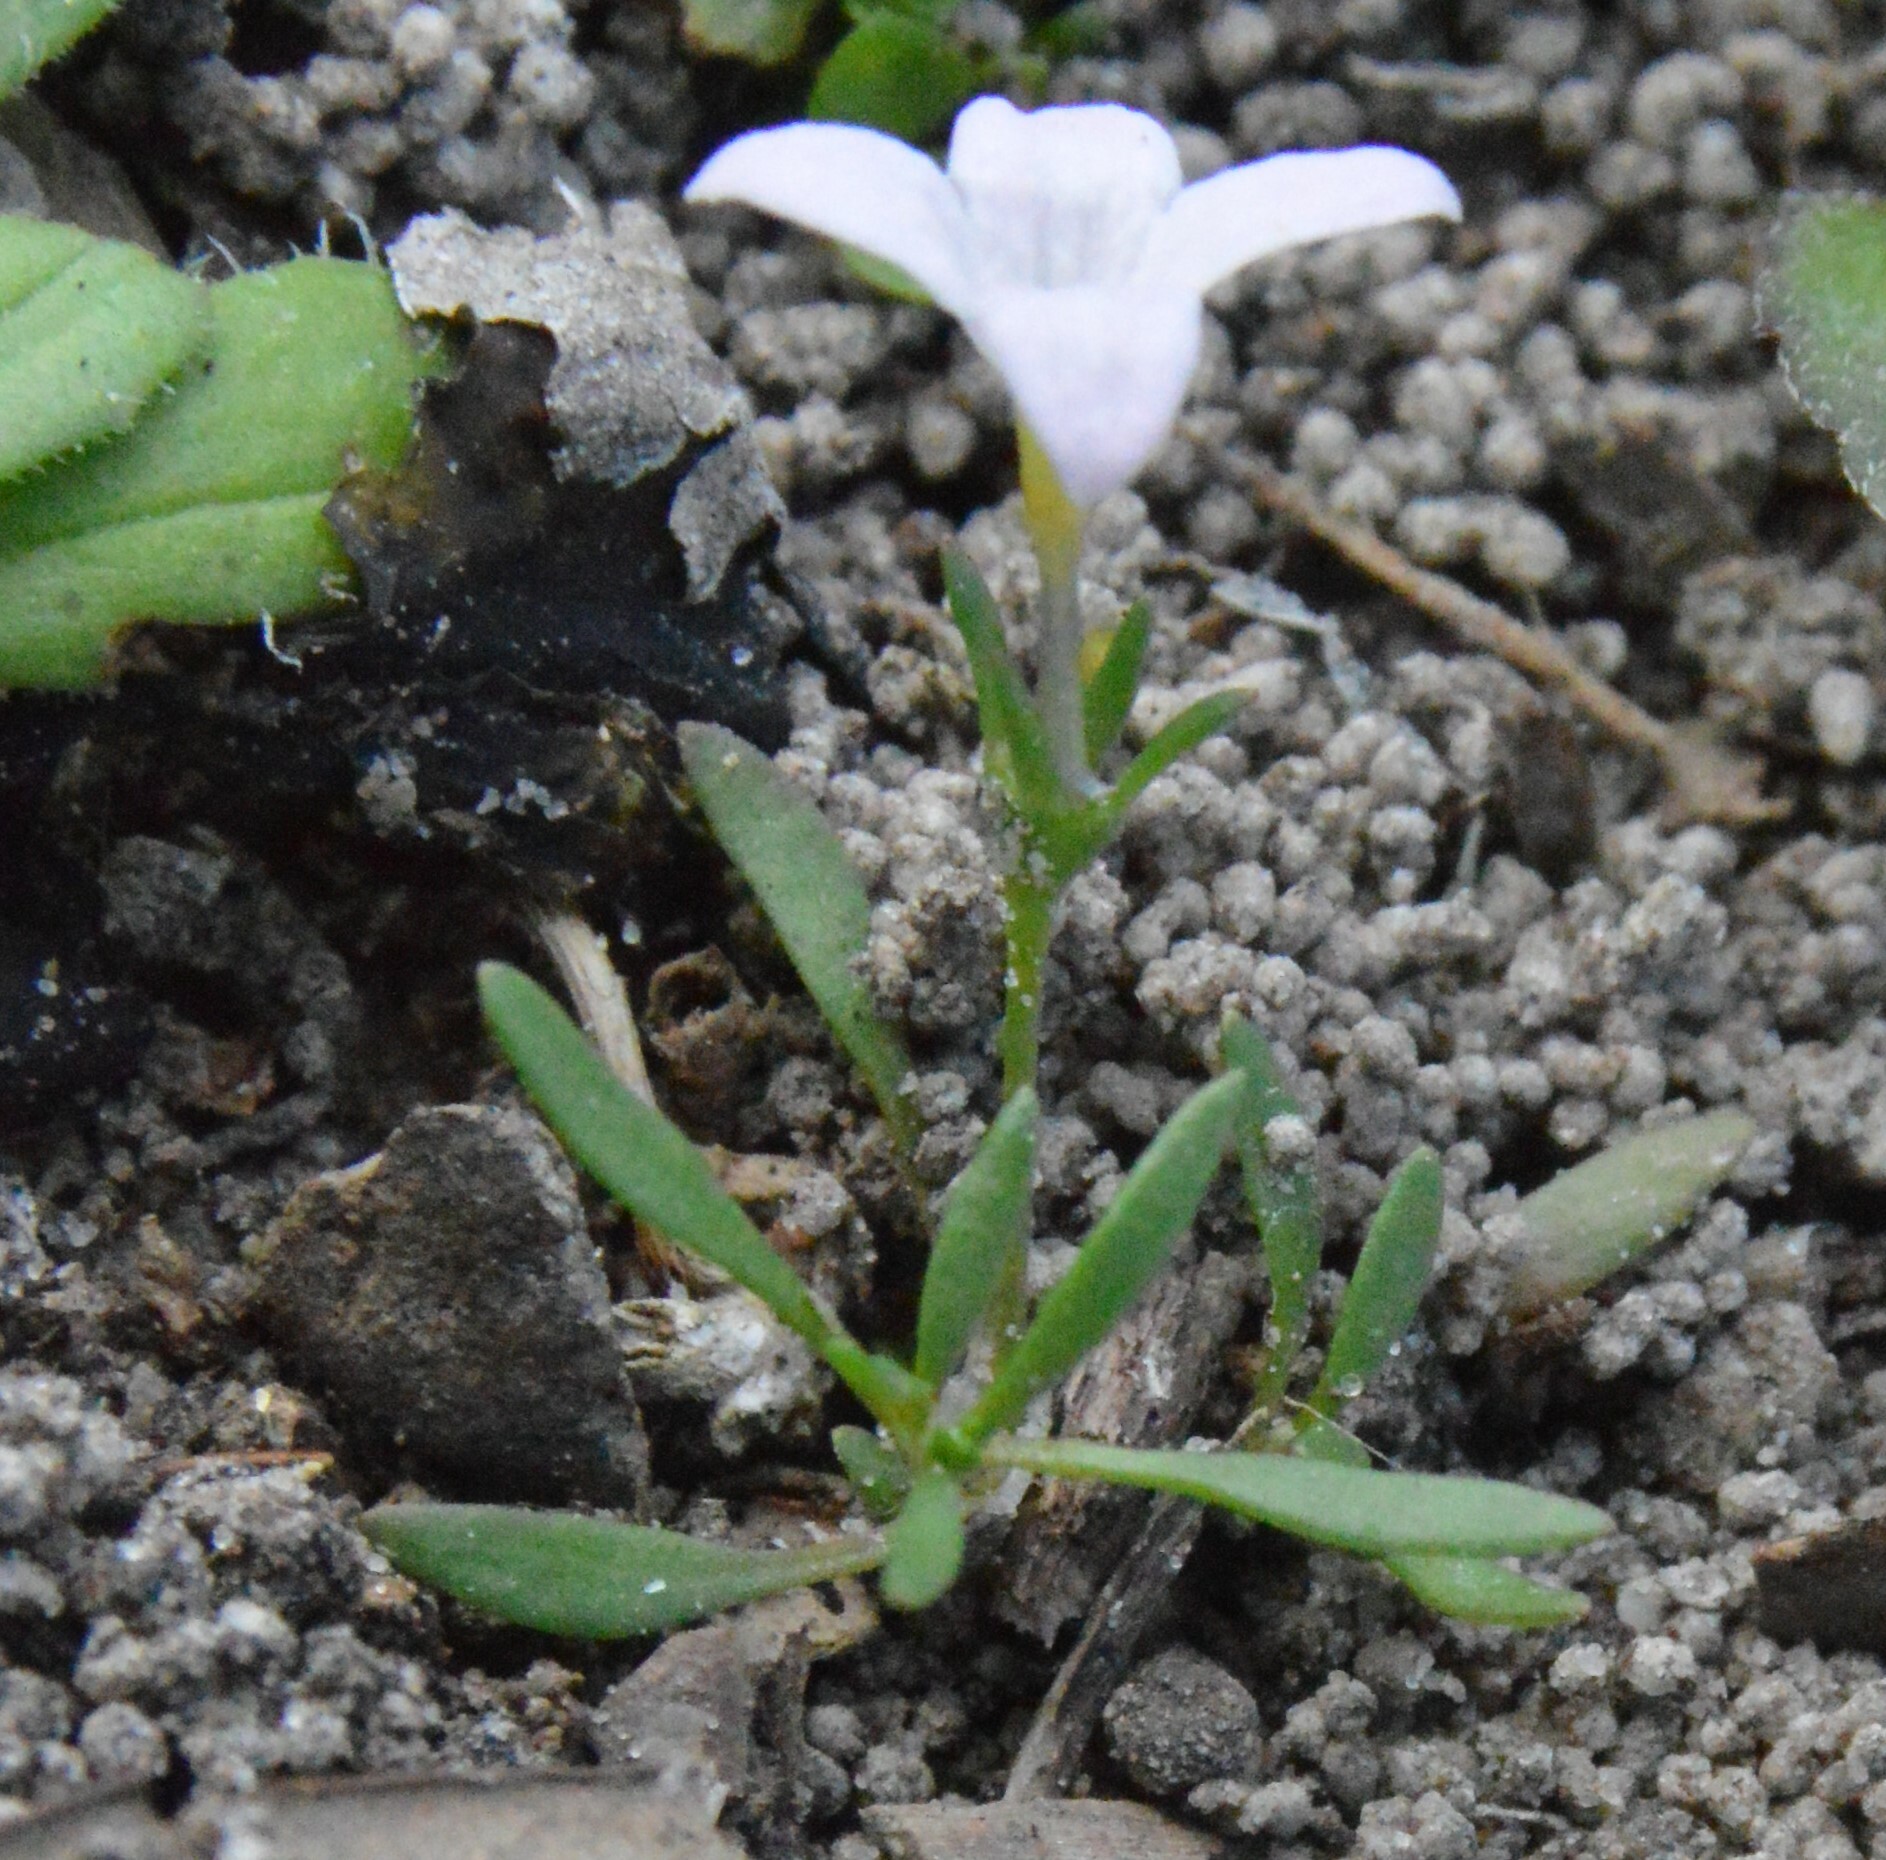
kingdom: Plantae
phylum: Tracheophyta
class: Magnoliopsida
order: Gentianales
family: Rubiaceae
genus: Houstonia
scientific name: Houstonia rosea
